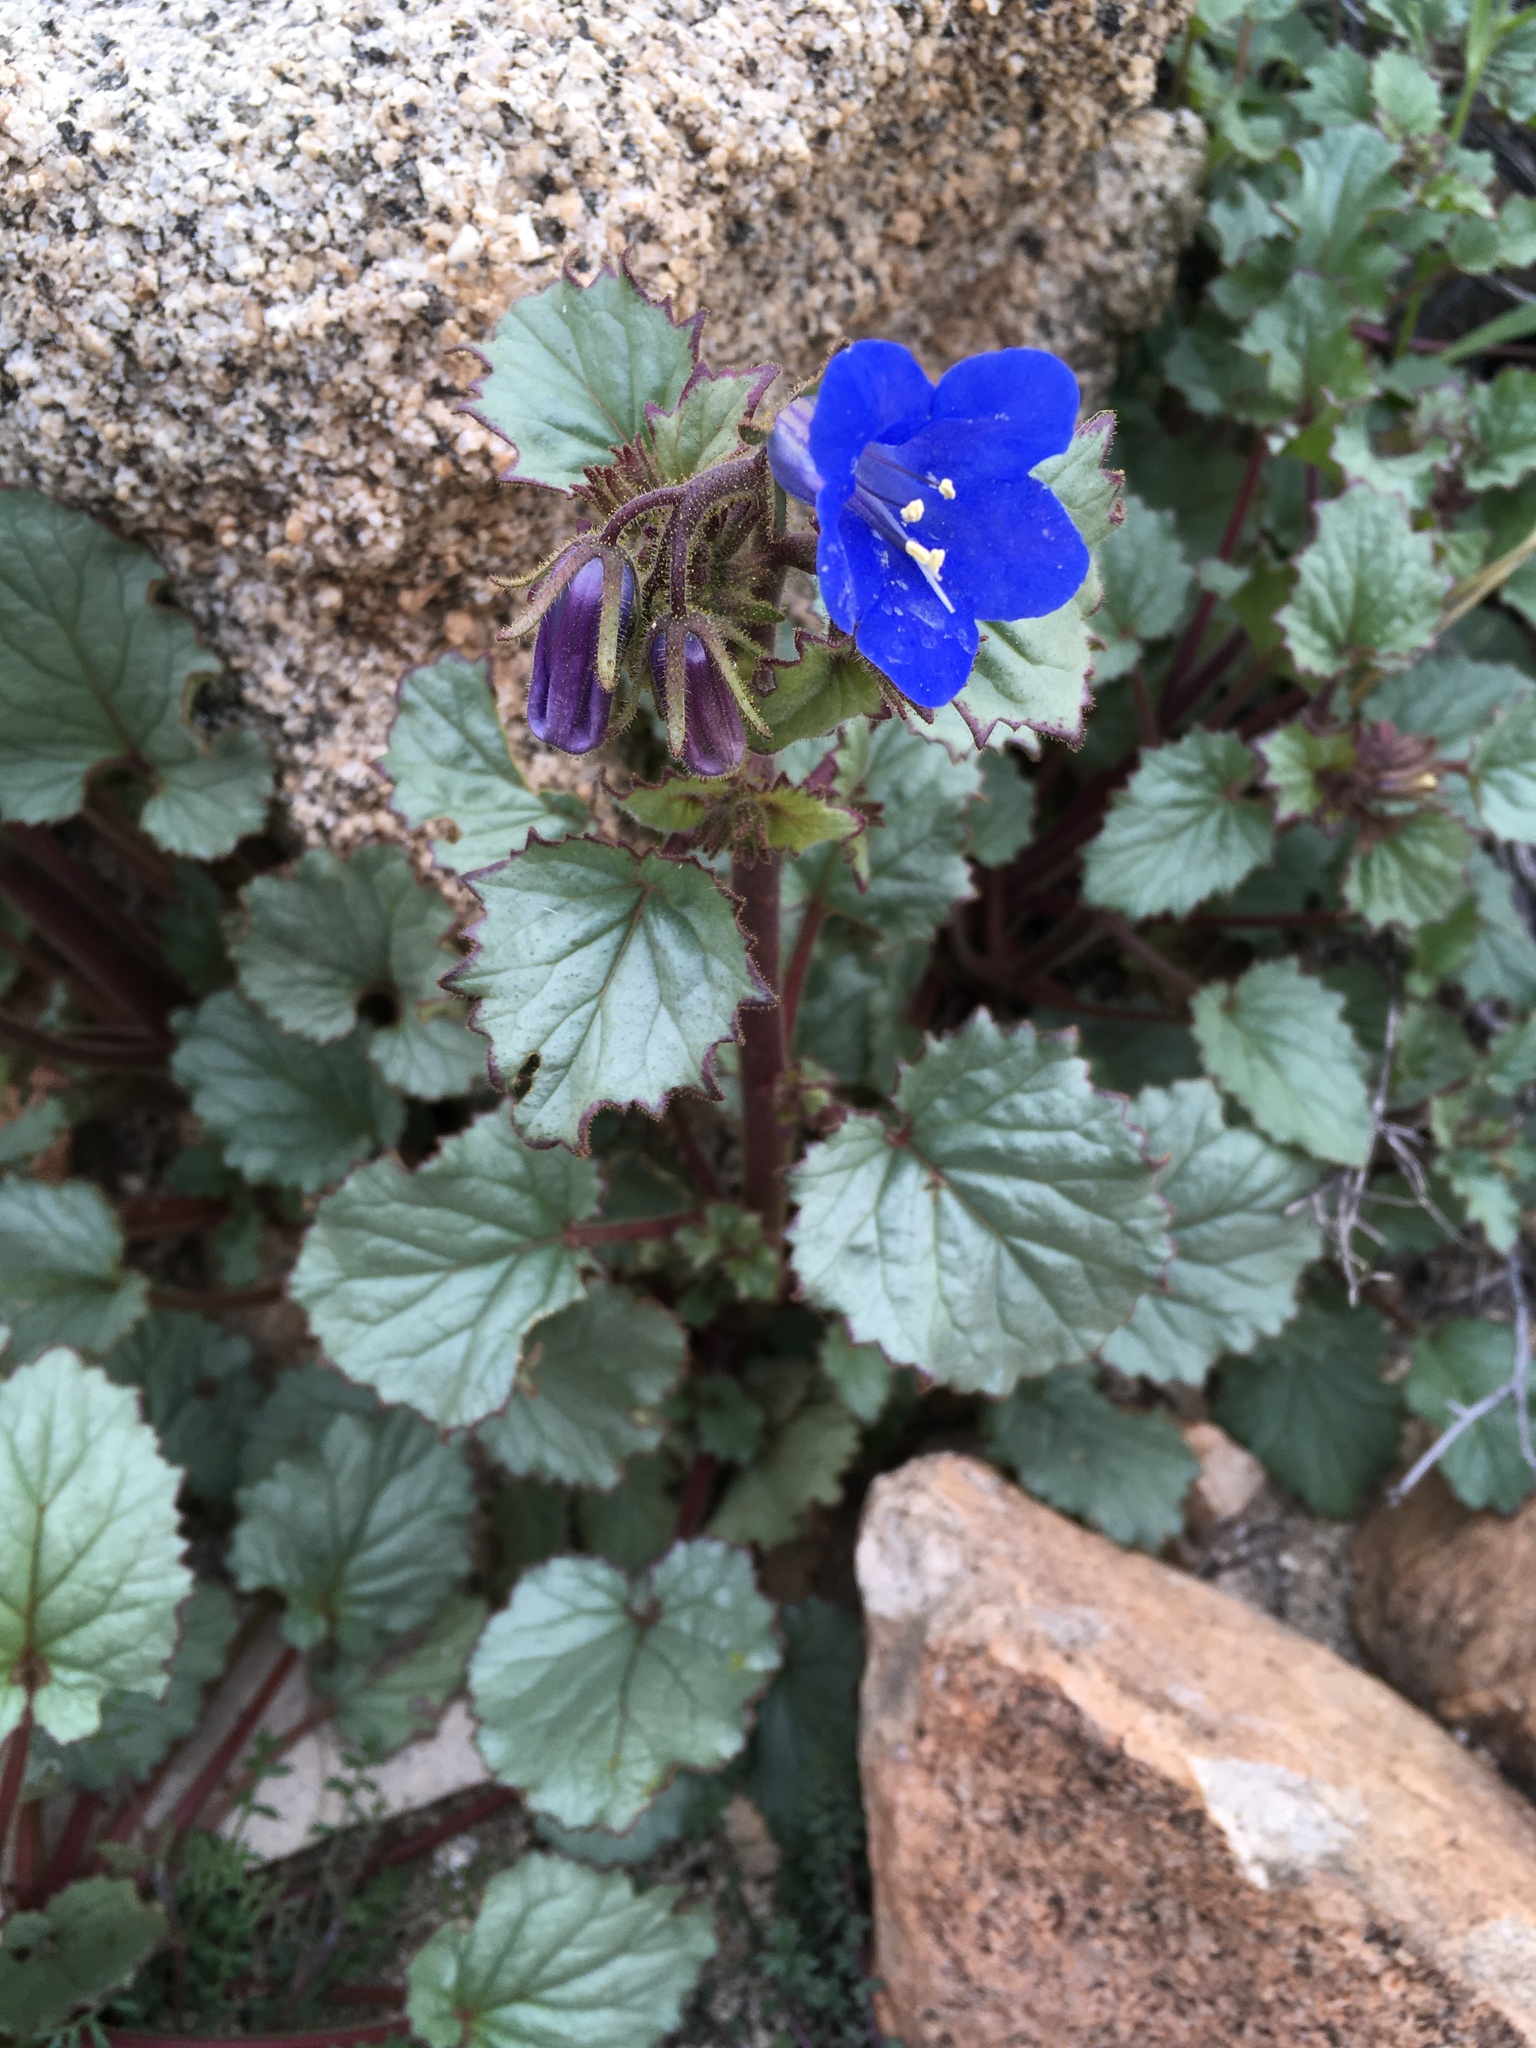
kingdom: Plantae
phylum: Tracheophyta
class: Magnoliopsida
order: Boraginales
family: Hydrophyllaceae
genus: Phacelia
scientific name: Phacelia campanularia
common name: California bluebell
